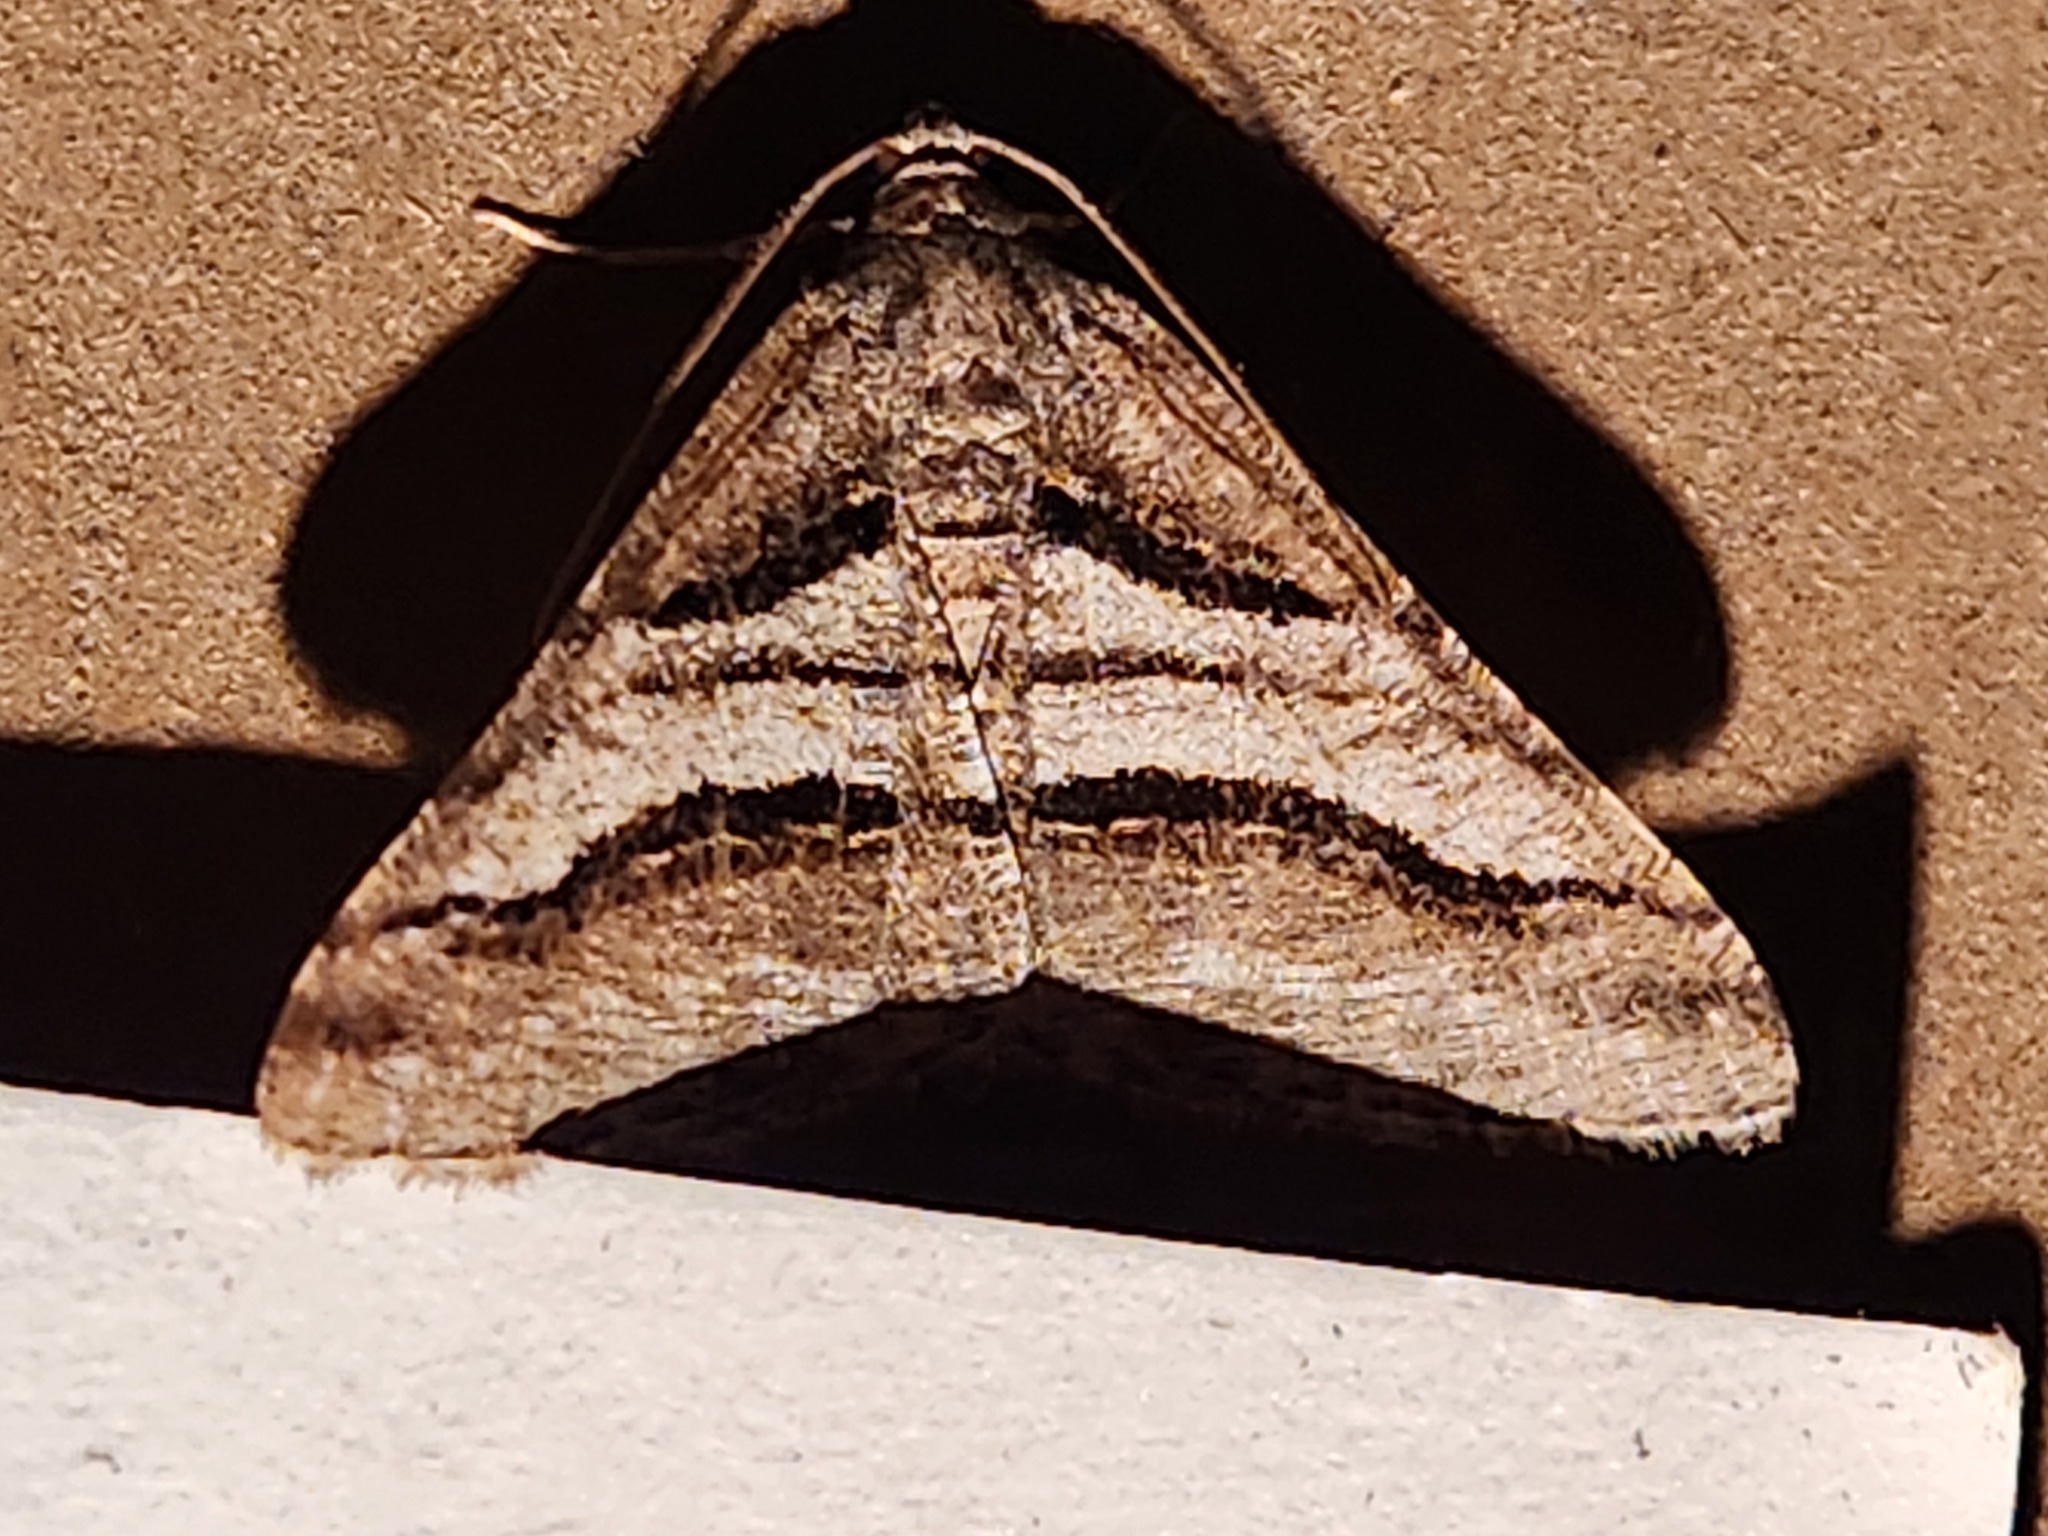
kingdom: Animalia
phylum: Arthropoda
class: Insecta
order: Lepidoptera
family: Geometridae
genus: Digrammia
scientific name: Digrammia atrofasciata
